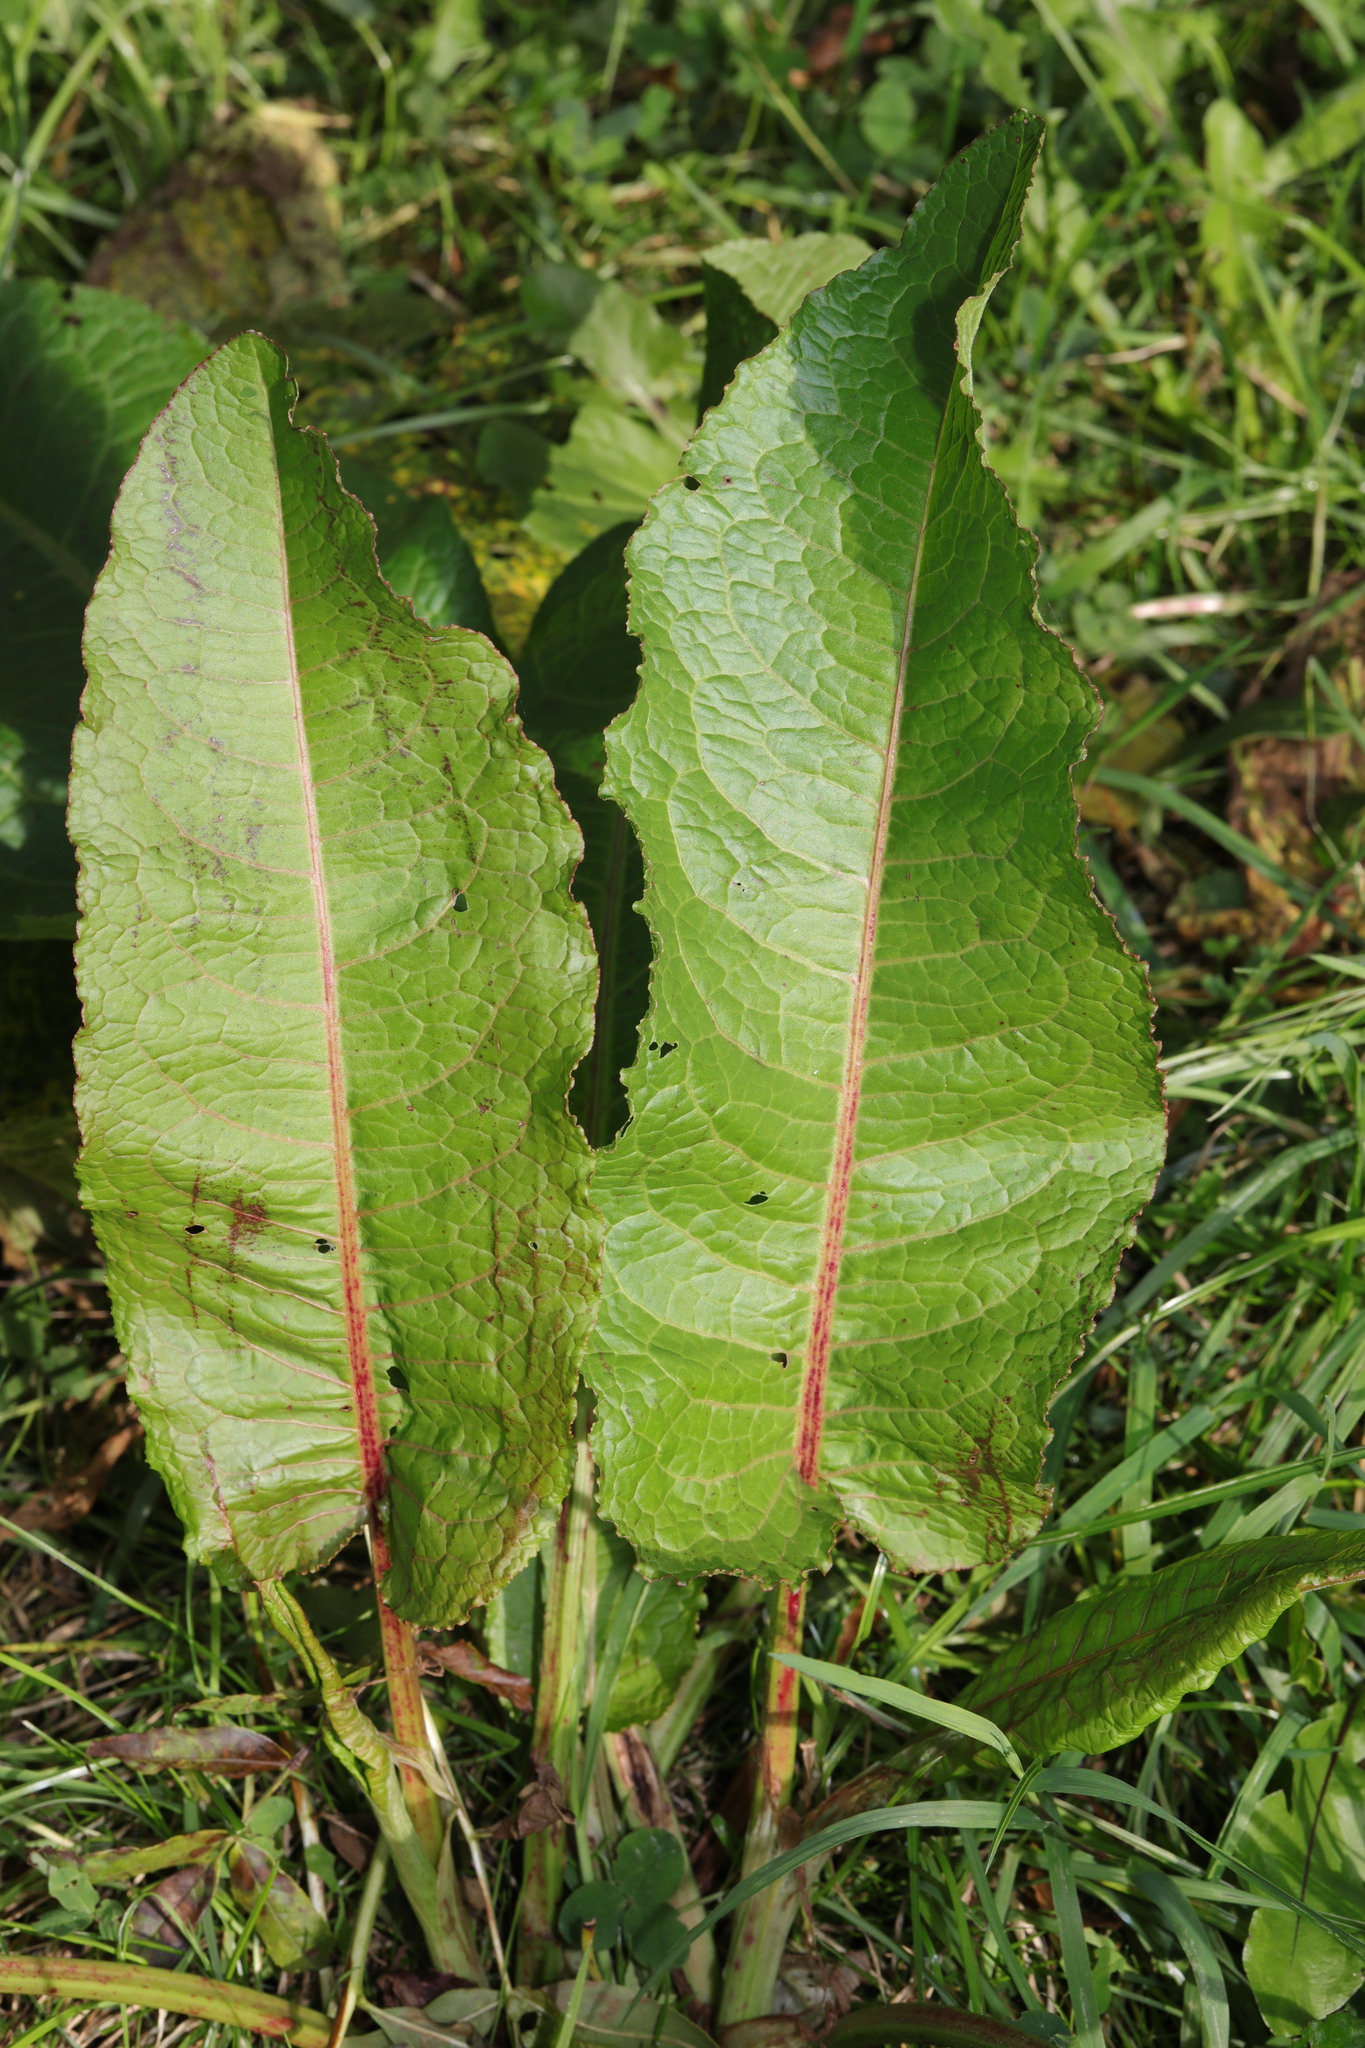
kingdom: Plantae
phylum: Tracheophyta
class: Magnoliopsida
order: Caryophyllales
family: Polygonaceae
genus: Rumex
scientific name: Rumex obtusifolius
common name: Bitter dock
